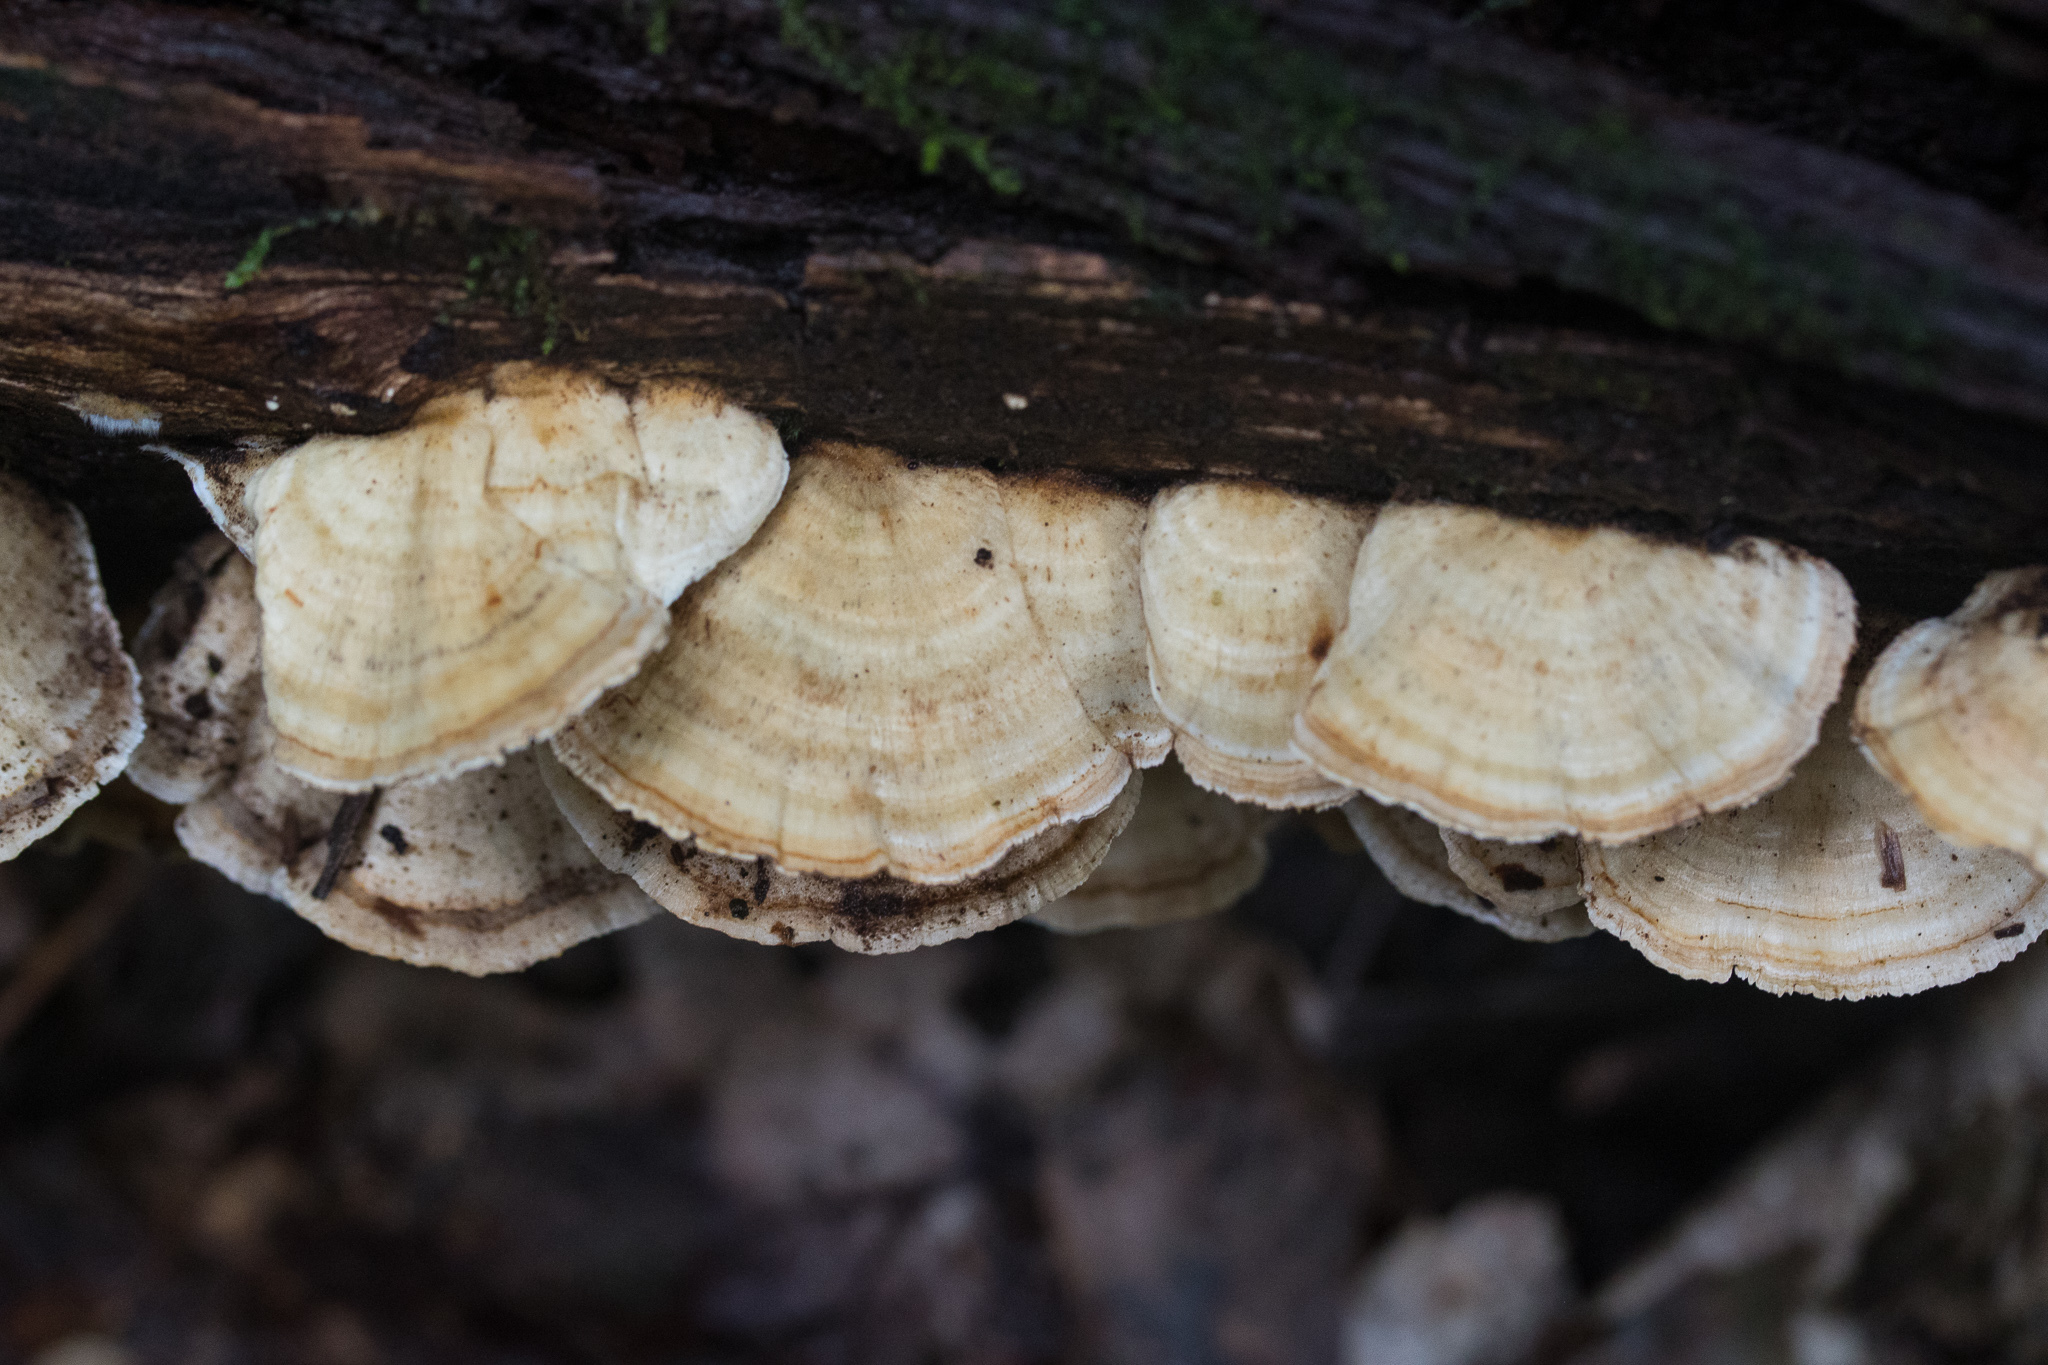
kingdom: Fungi
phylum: Basidiomycota
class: Agaricomycetes
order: Polyporales
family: Polyporaceae
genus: Trametes
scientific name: Trametes pubescens
